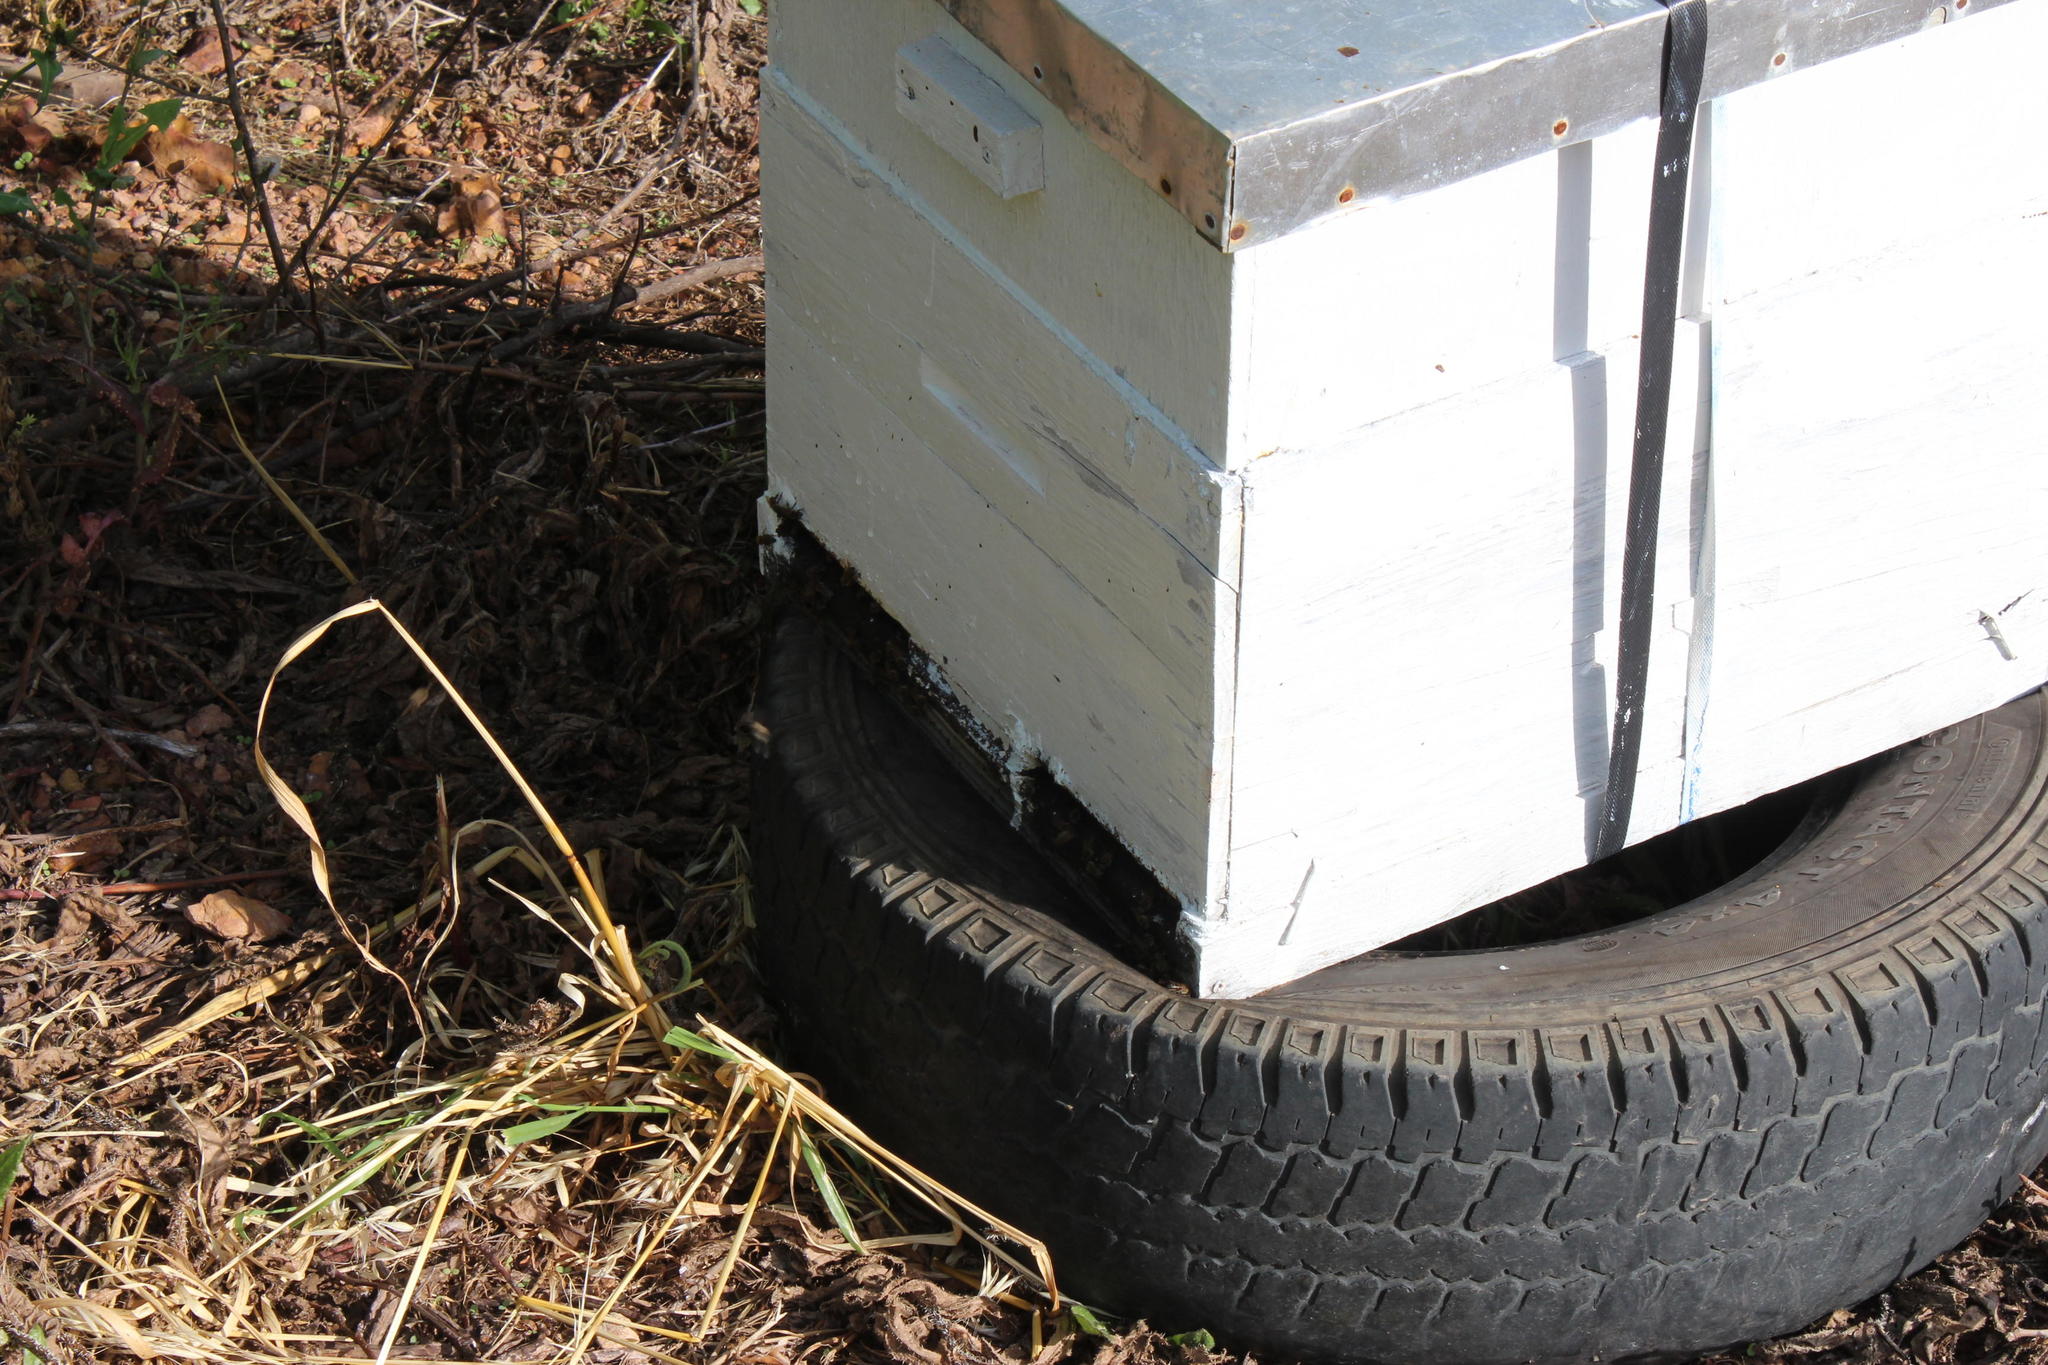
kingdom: Animalia
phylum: Arthropoda
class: Insecta
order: Hymenoptera
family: Apidae
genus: Apis
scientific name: Apis mellifera
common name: Honey bee
